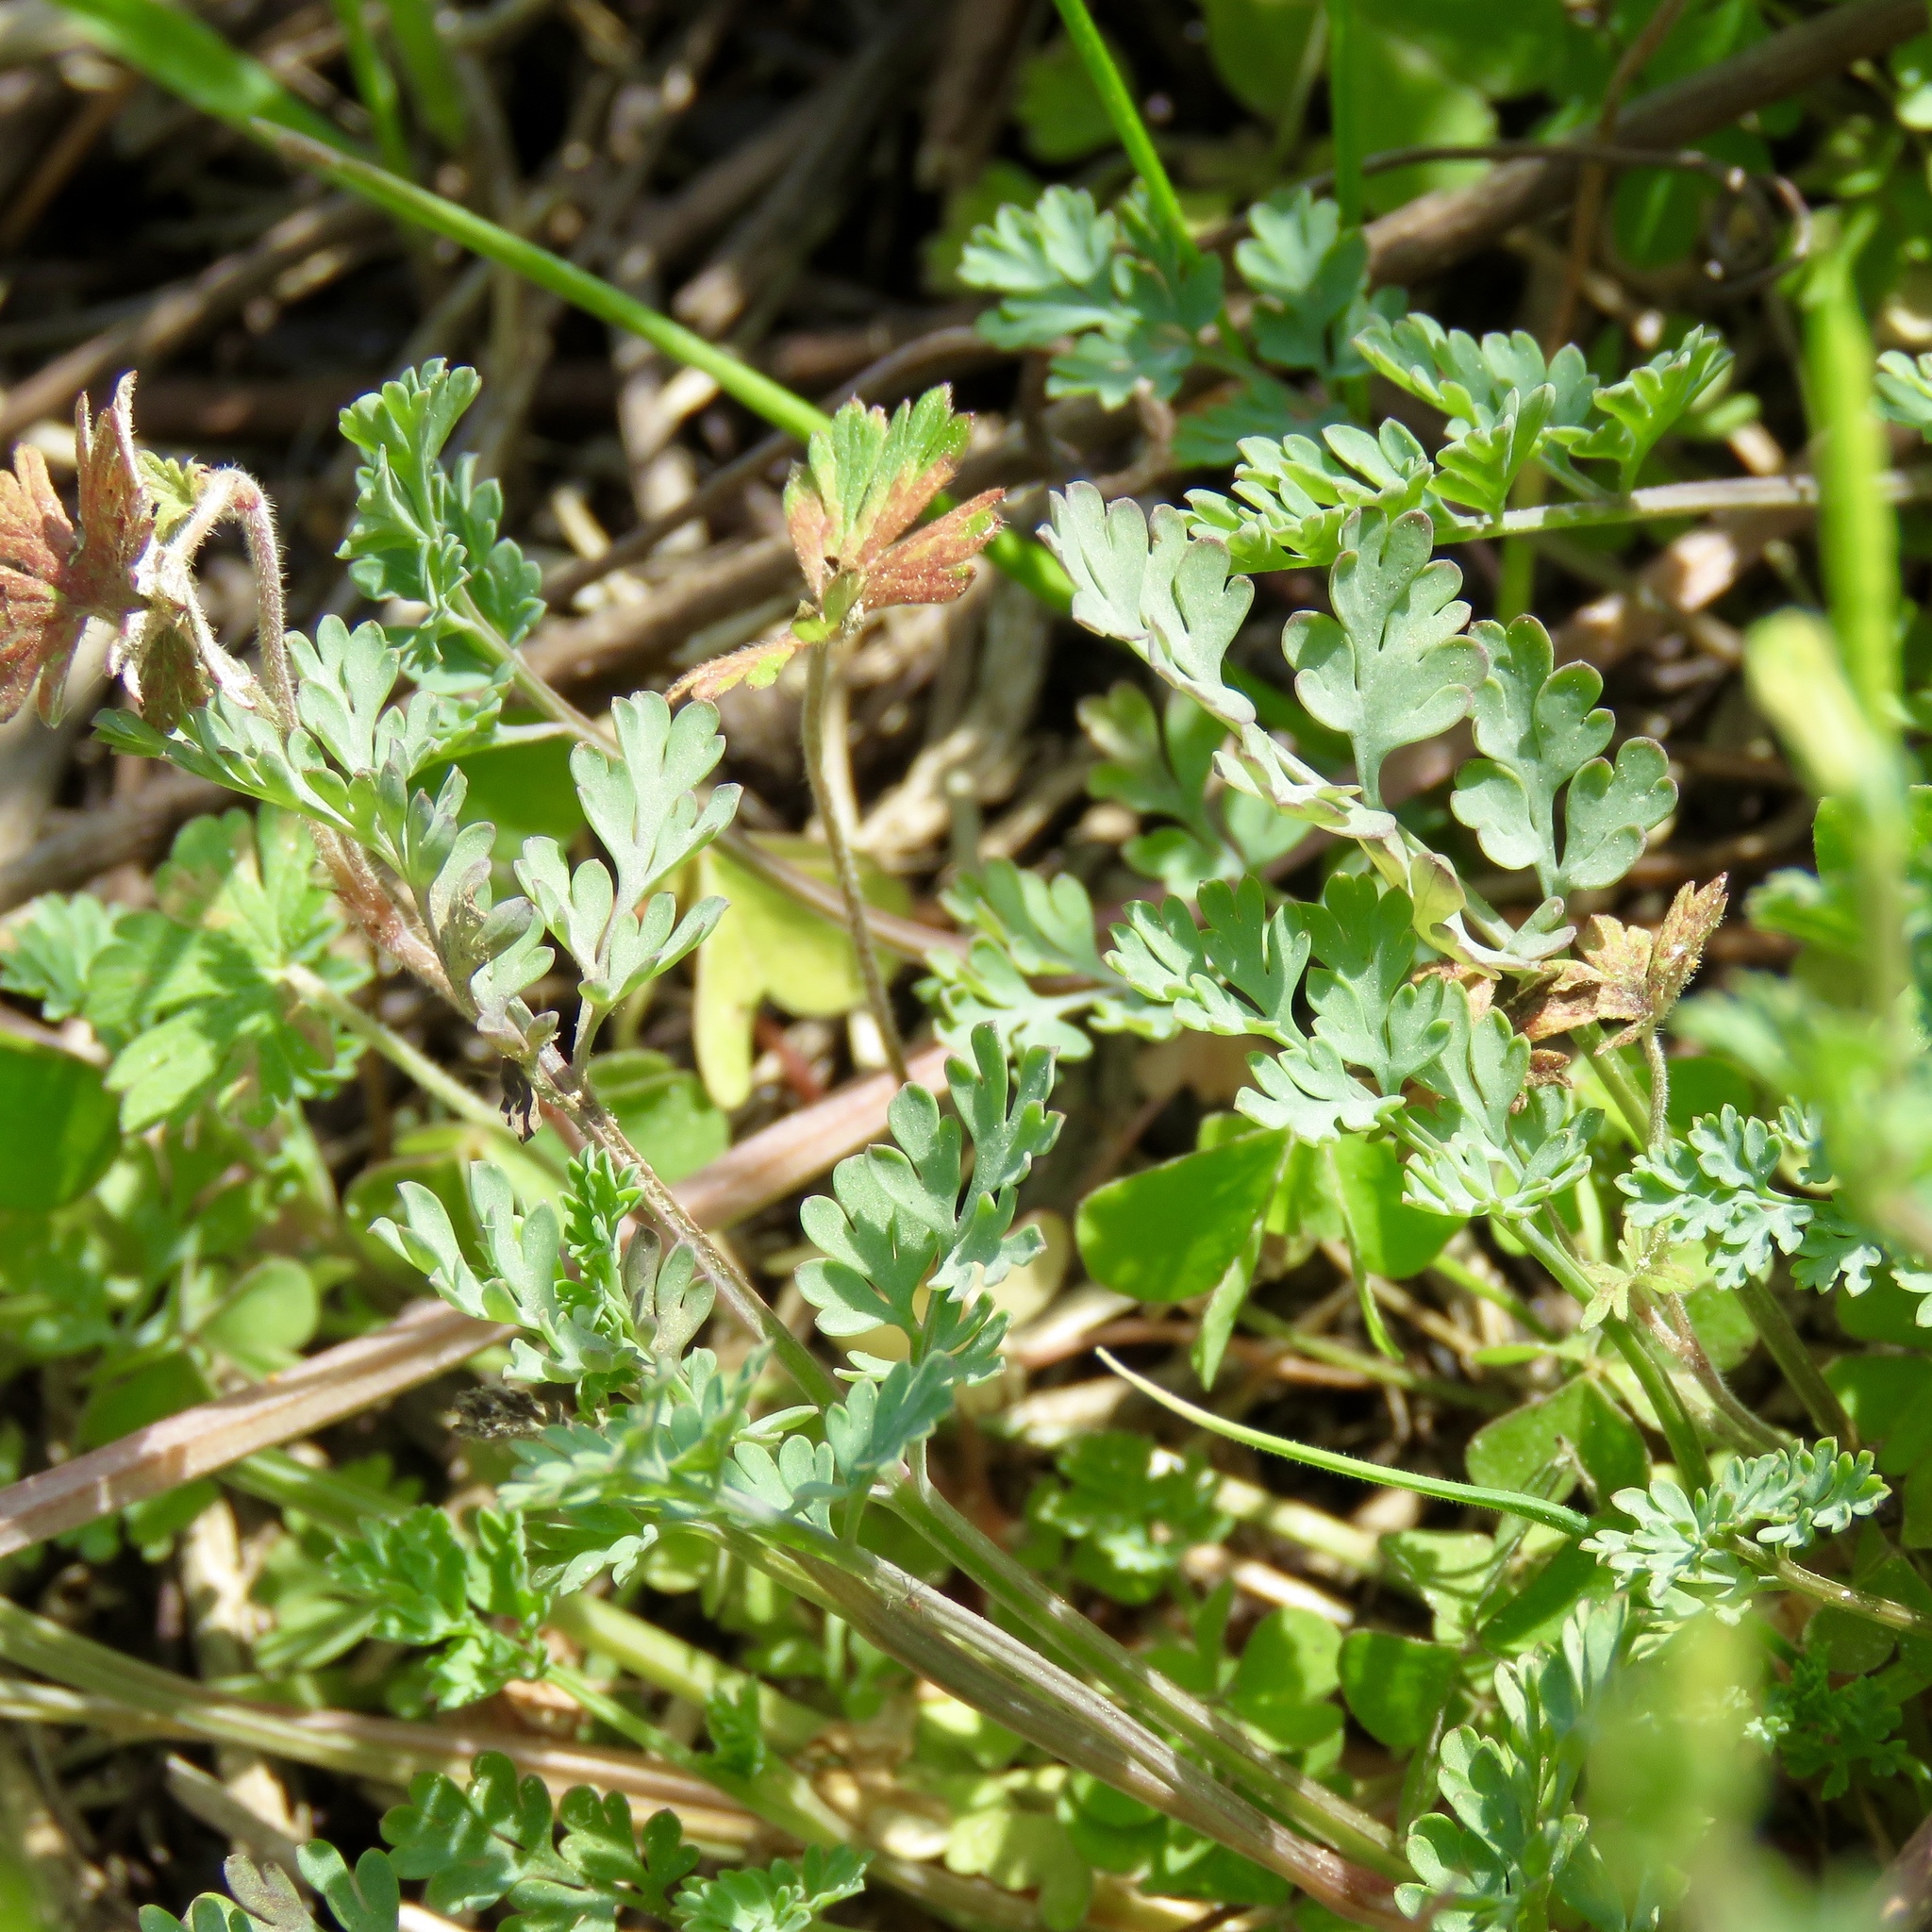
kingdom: Plantae
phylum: Tracheophyta
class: Magnoliopsida
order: Ranunculales
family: Papaveraceae
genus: Corydalis
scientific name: Corydalis micrantha
